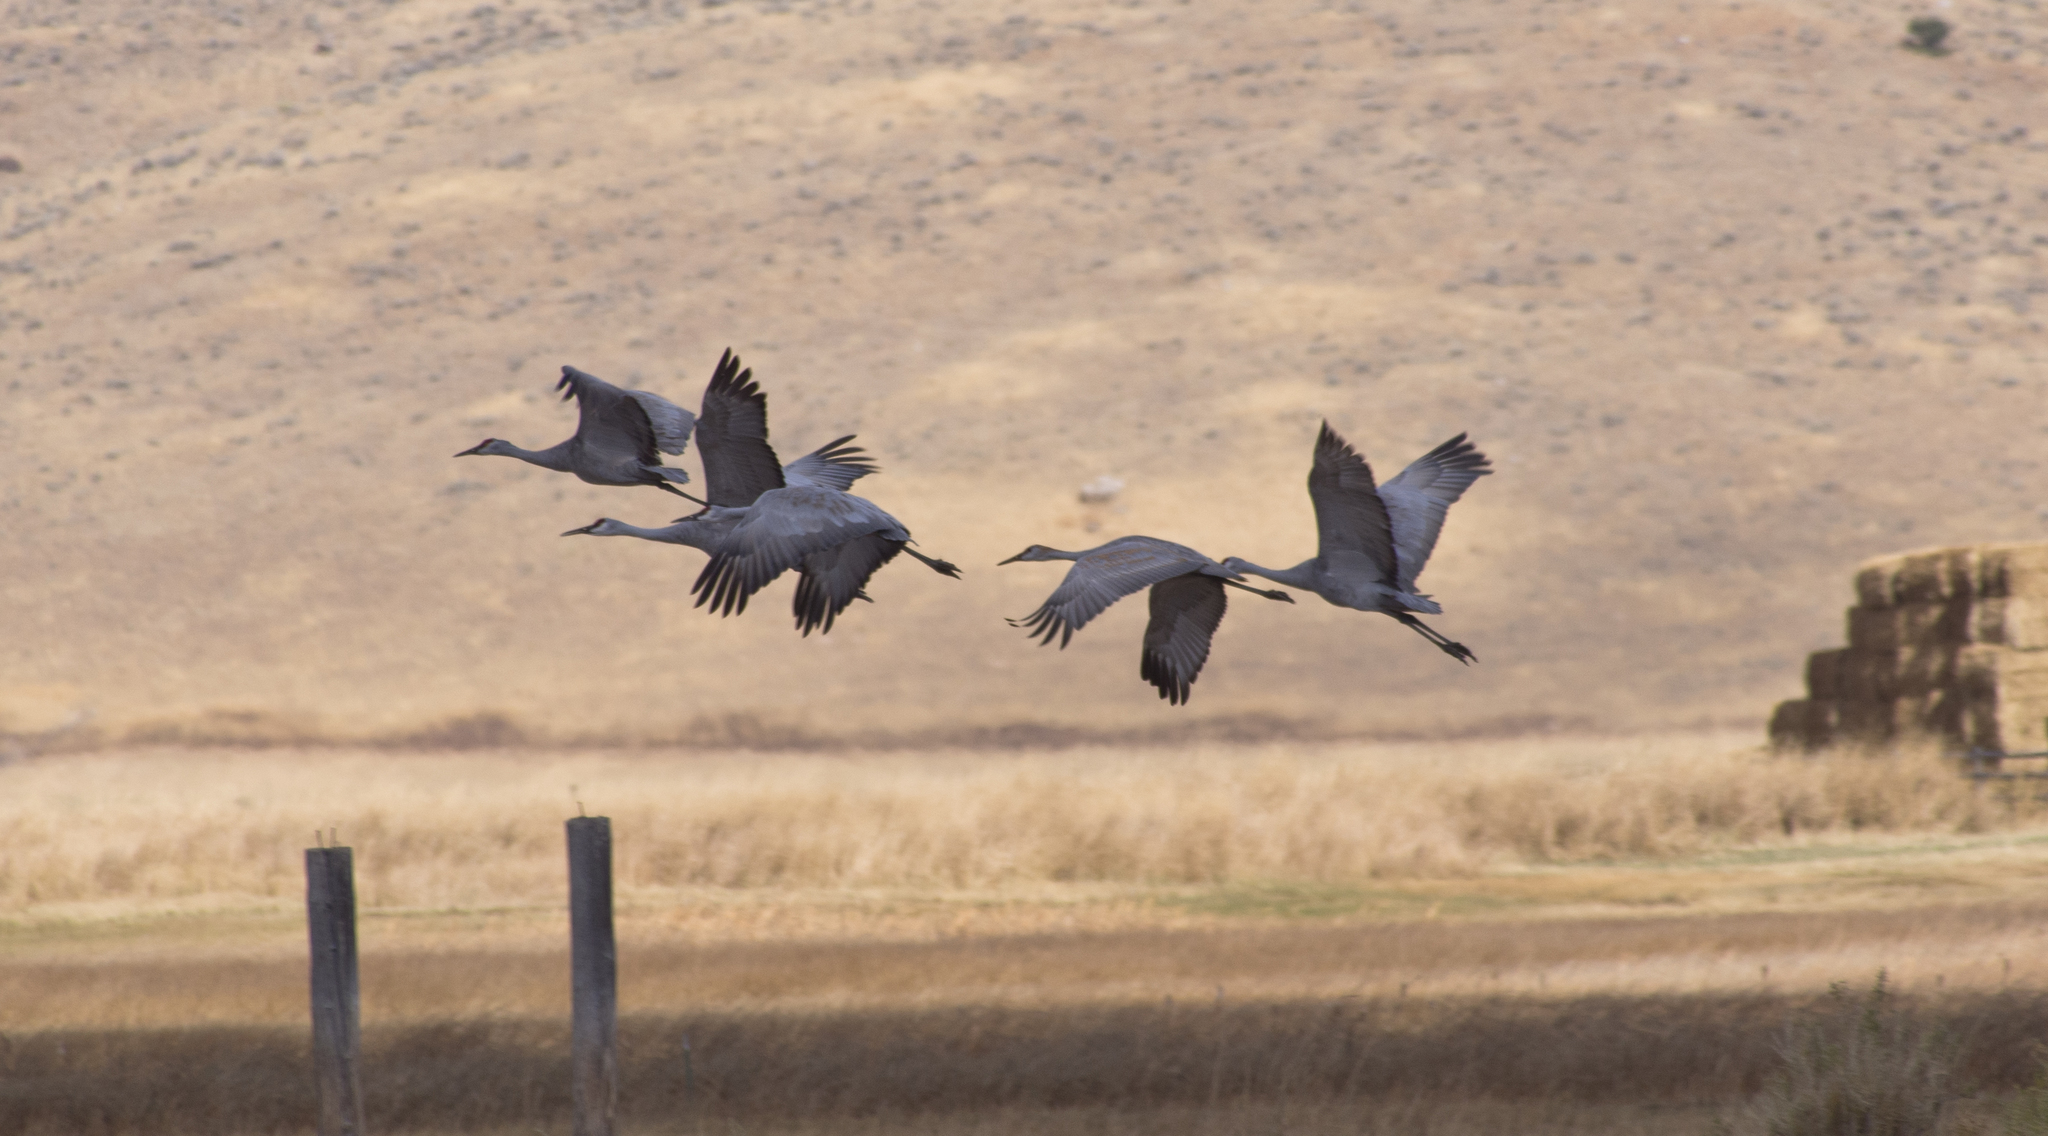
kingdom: Animalia
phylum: Chordata
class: Aves
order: Gruiformes
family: Gruidae
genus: Grus
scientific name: Grus canadensis
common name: Sandhill crane
